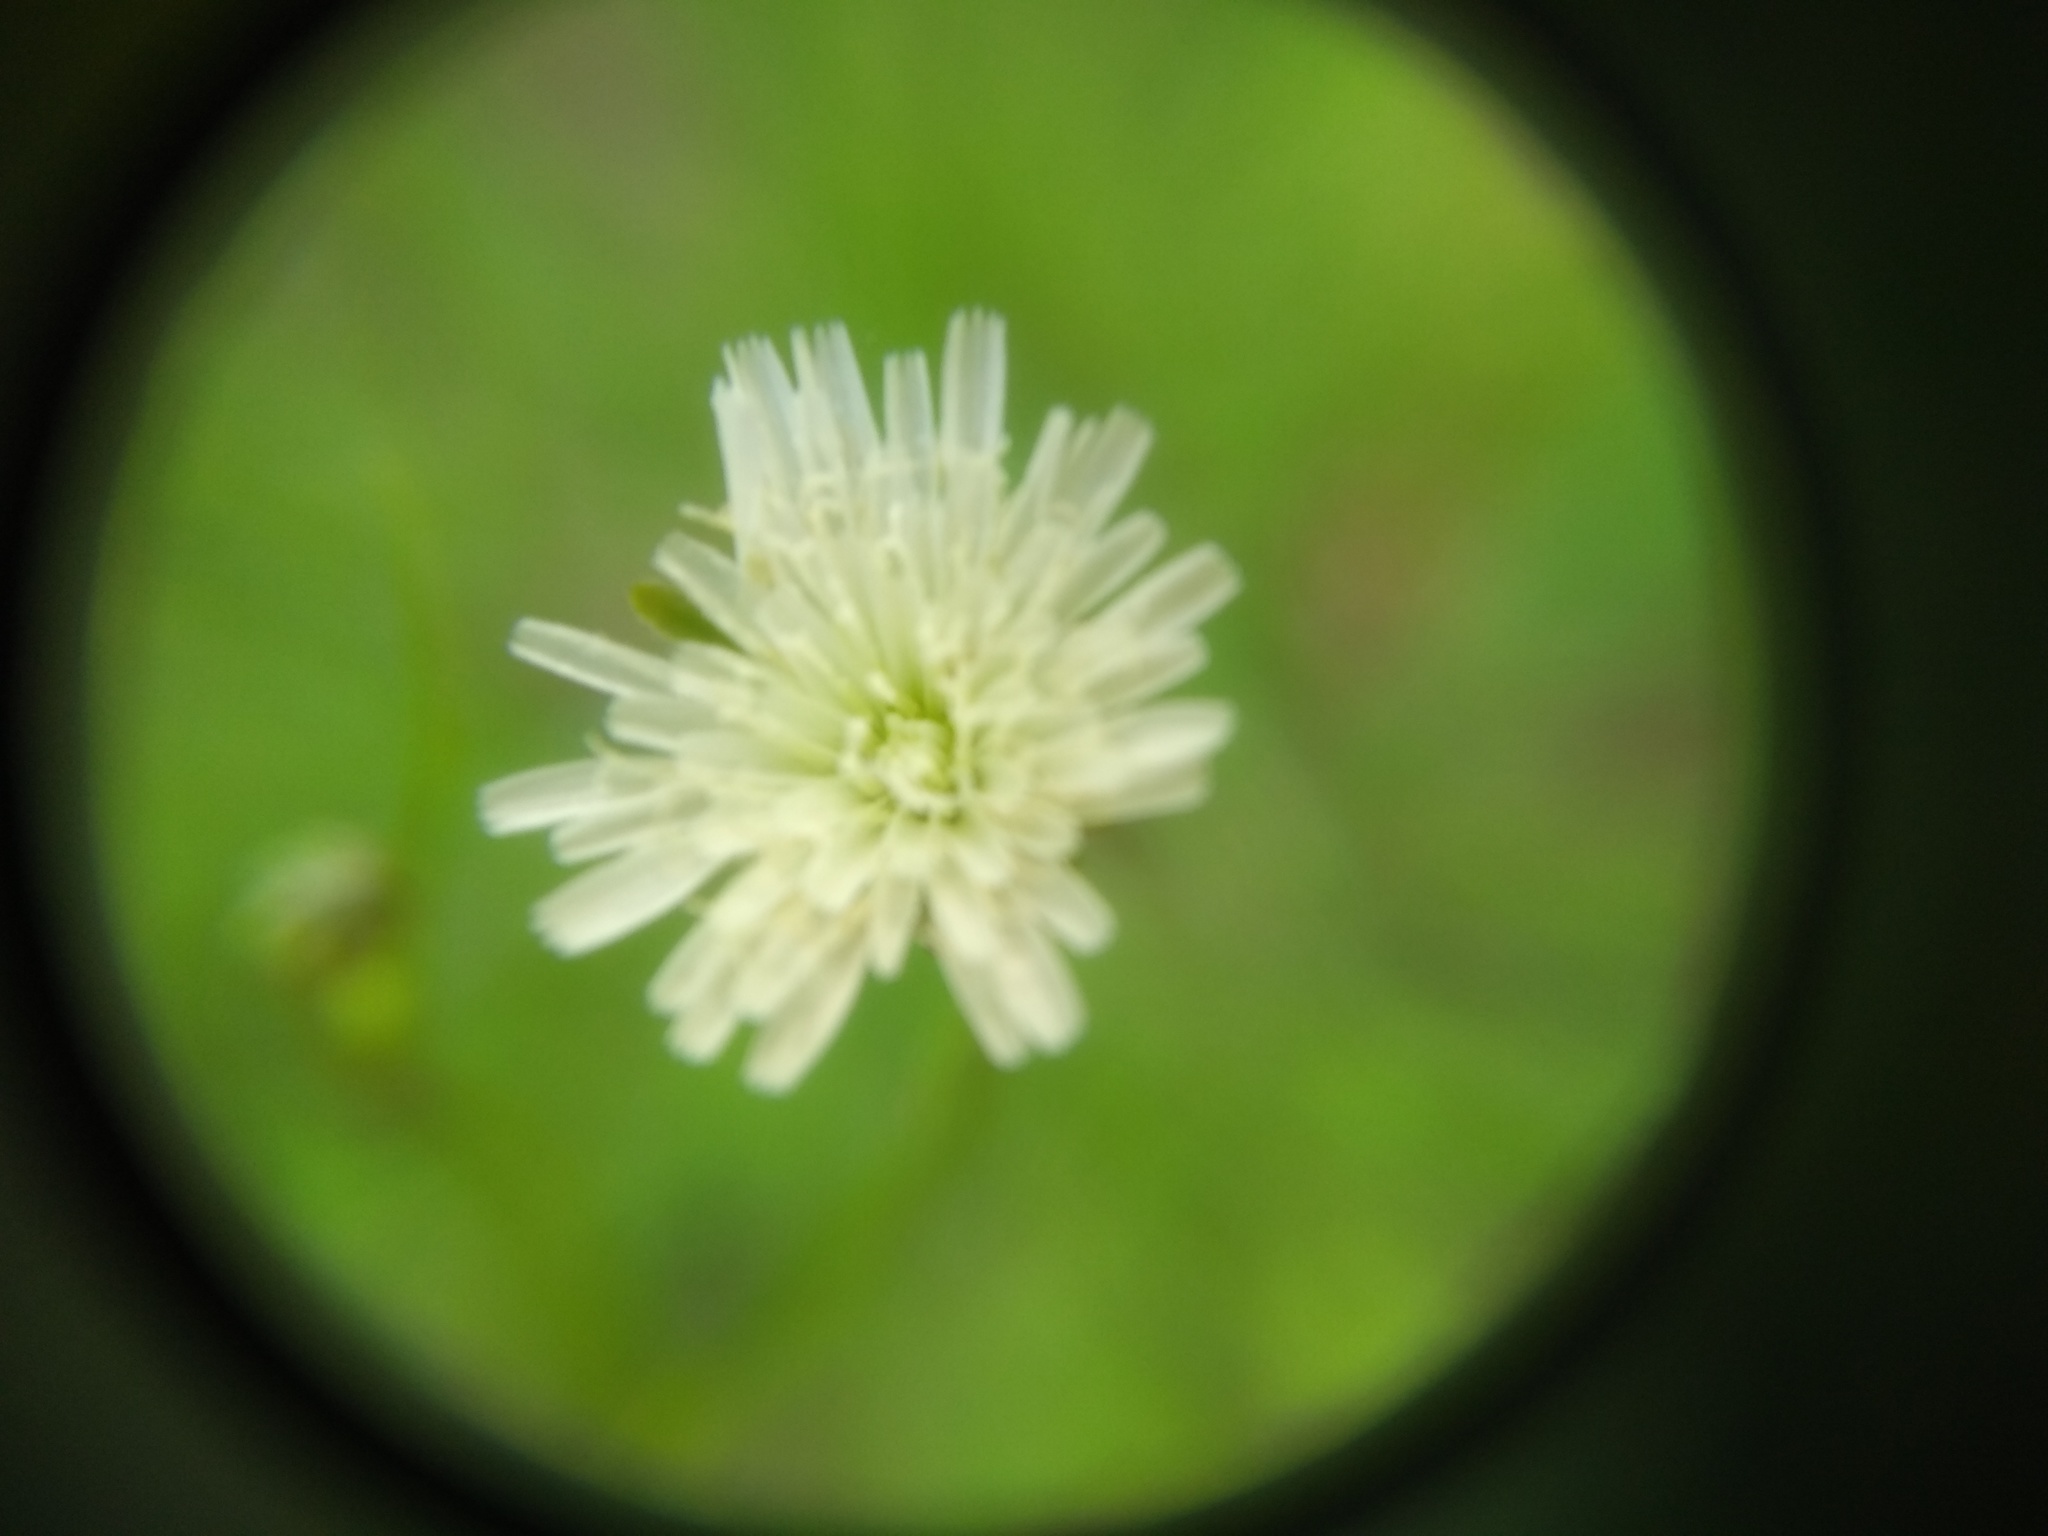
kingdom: Plantae
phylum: Tracheophyta
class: Magnoliopsida
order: Asterales
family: Asteraceae
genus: Hypochaeris
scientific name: Hypochaeris albiflora
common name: White flatweed
